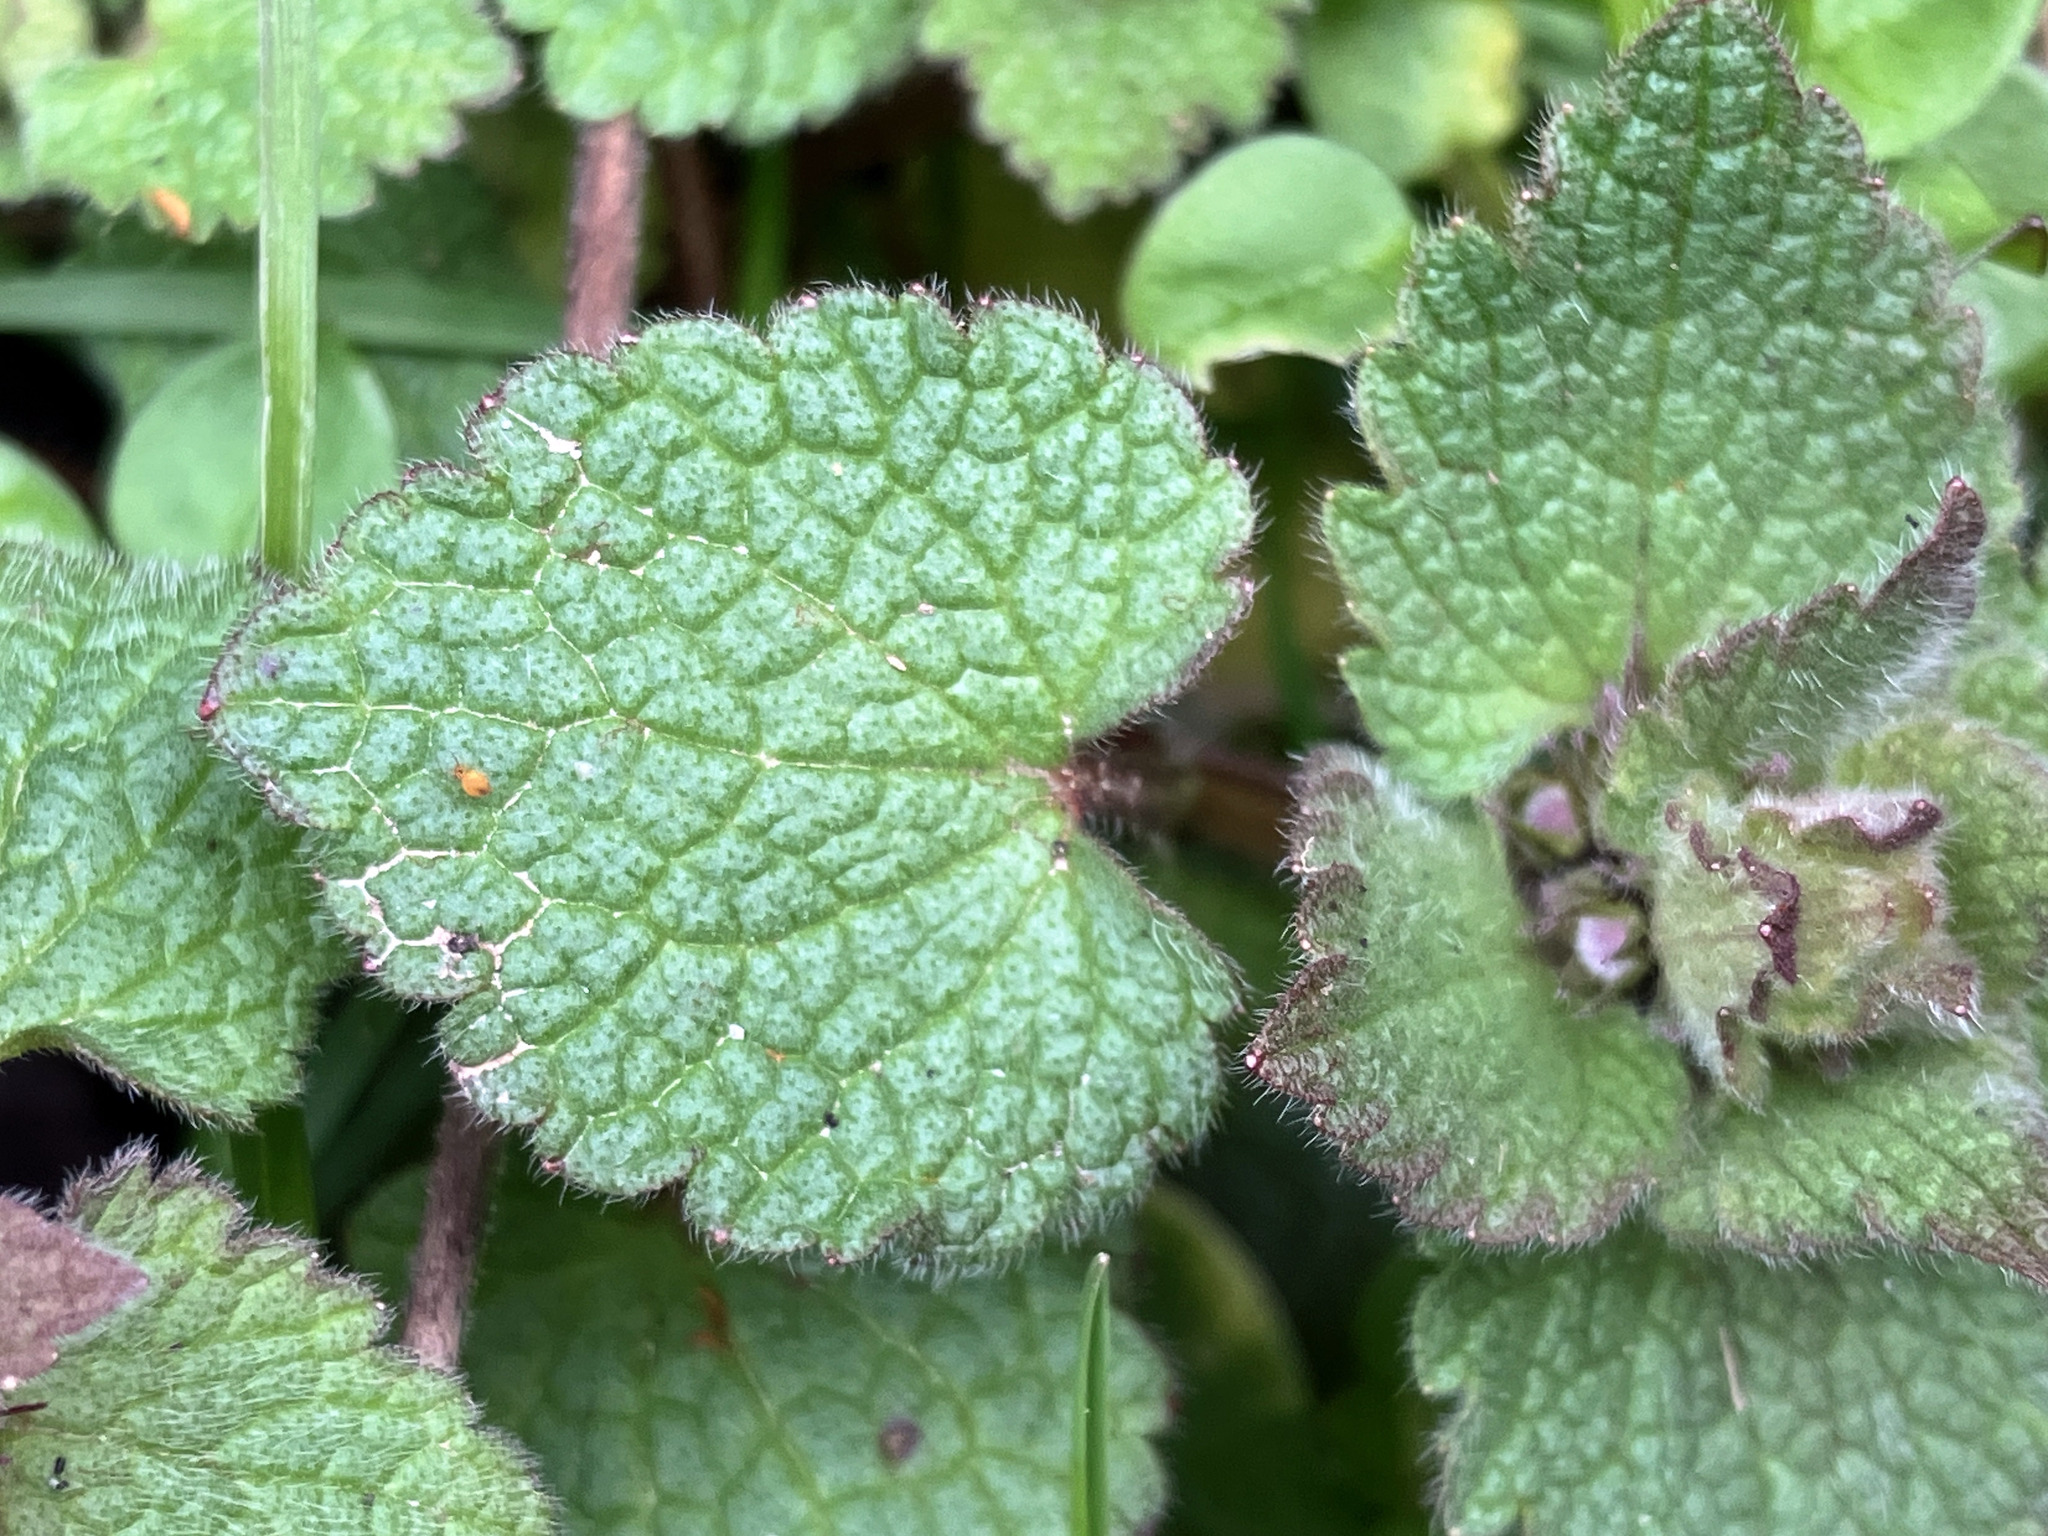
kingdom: Plantae
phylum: Tracheophyta
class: Magnoliopsida
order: Lamiales
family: Lamiaceae
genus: Lamium
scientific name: Lamium purpureum
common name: Red dead-nettle
